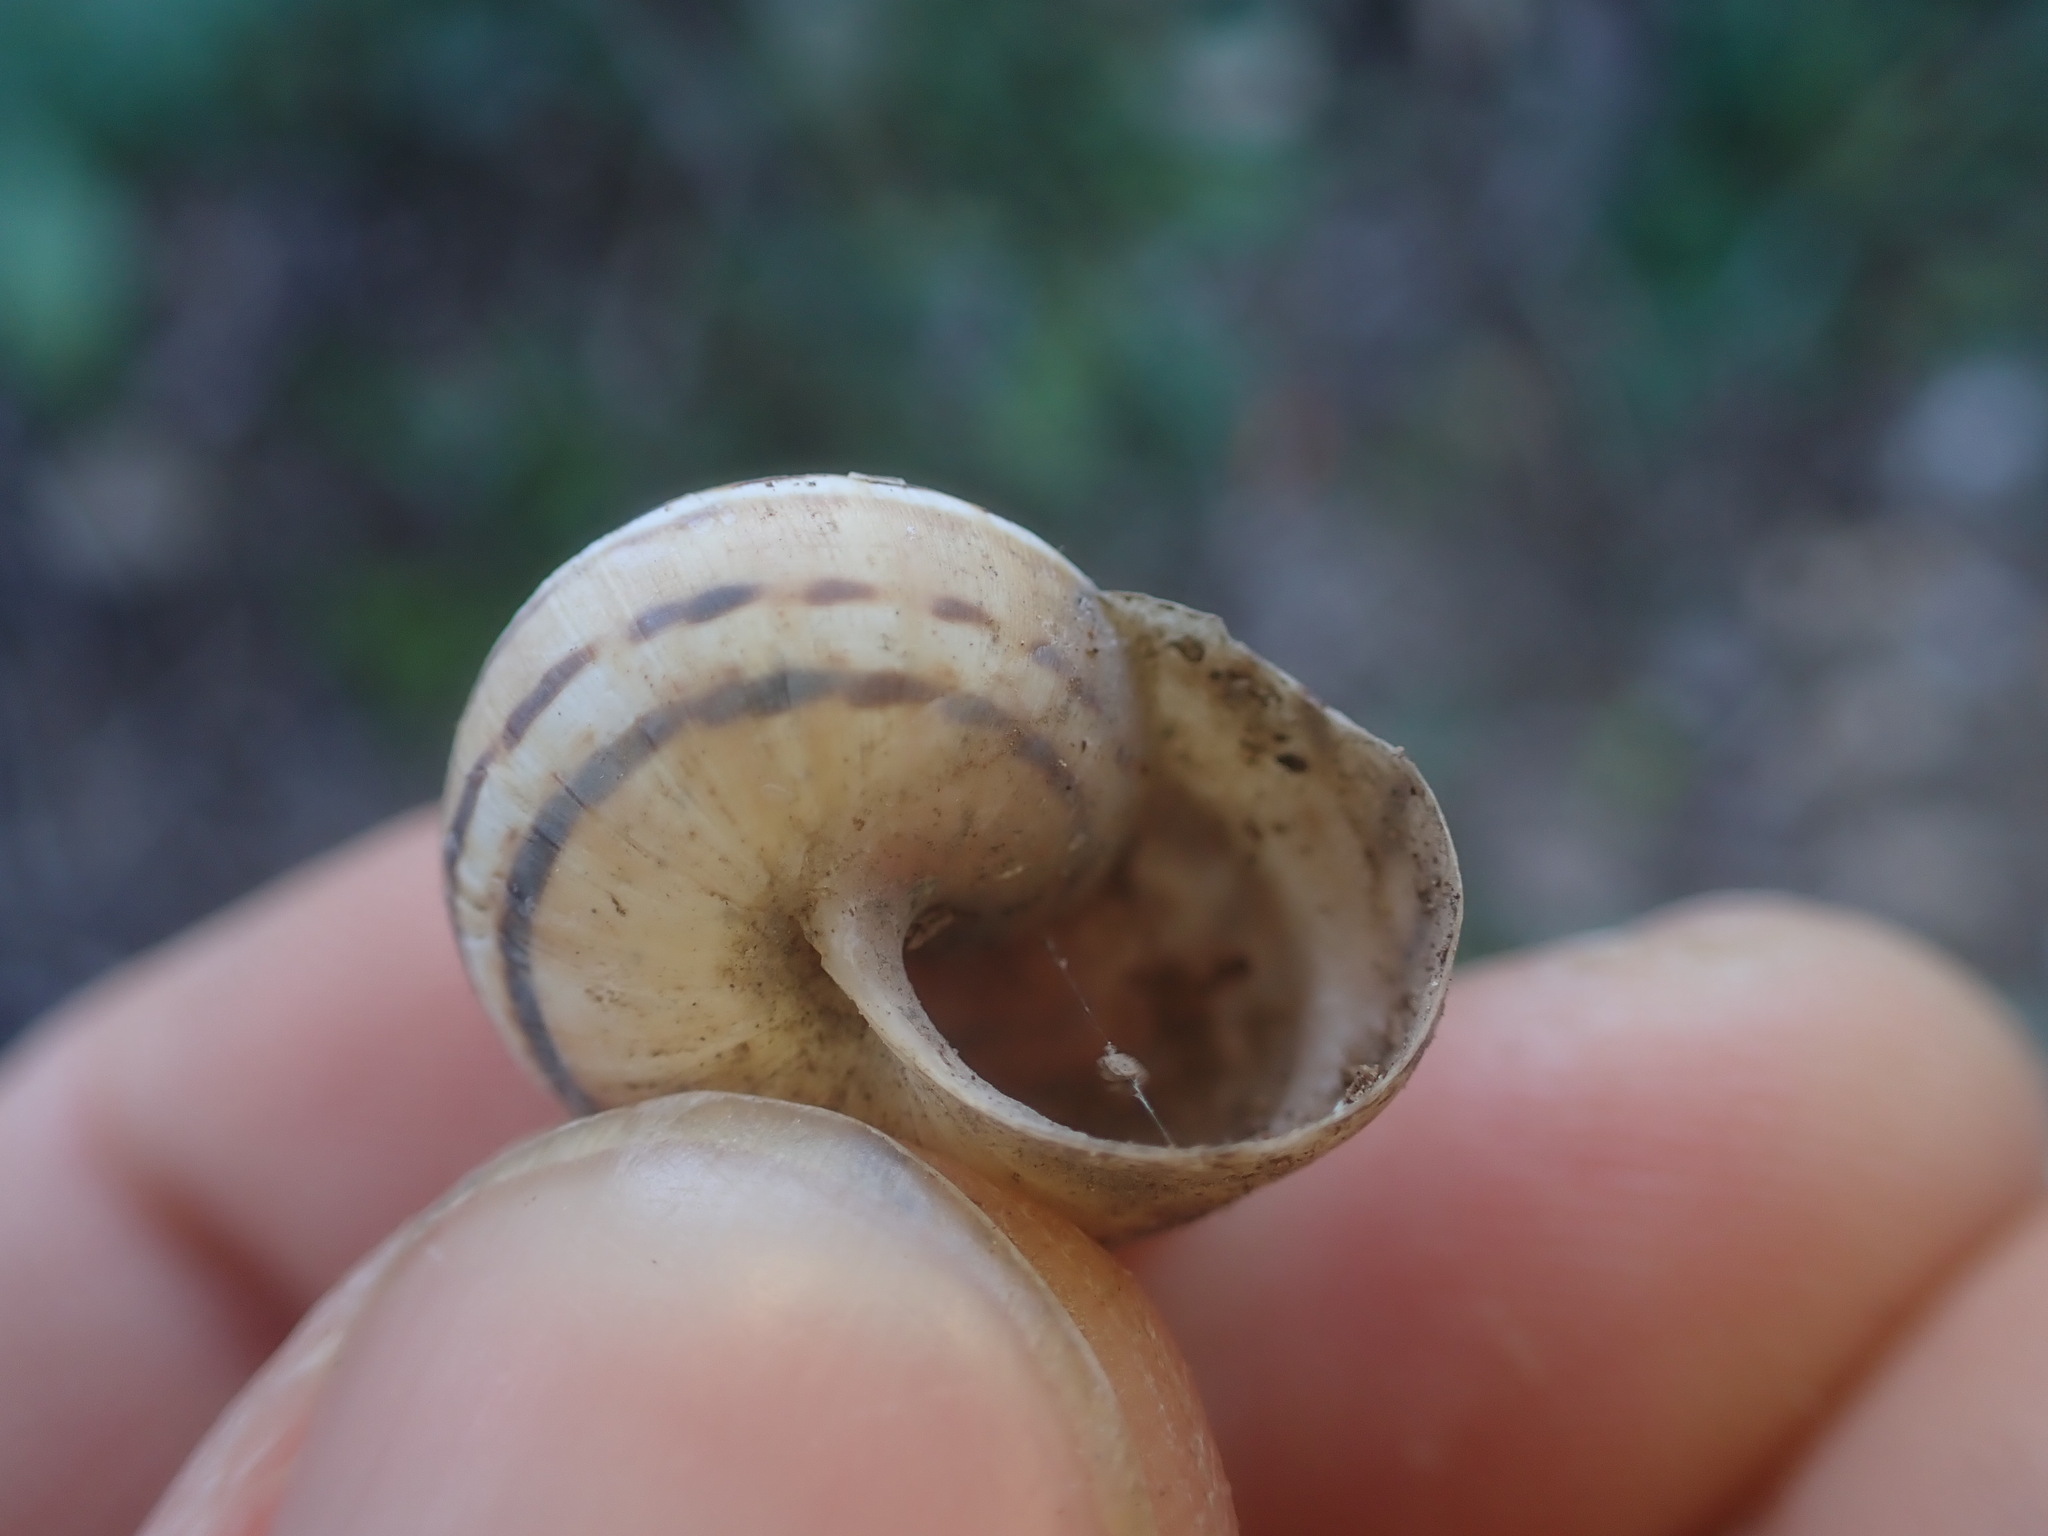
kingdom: Animalia
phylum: Mollusca
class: Gastropoda
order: Stylommatophora
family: Helicidae
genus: Theba
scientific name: Theba pisana
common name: White snail
